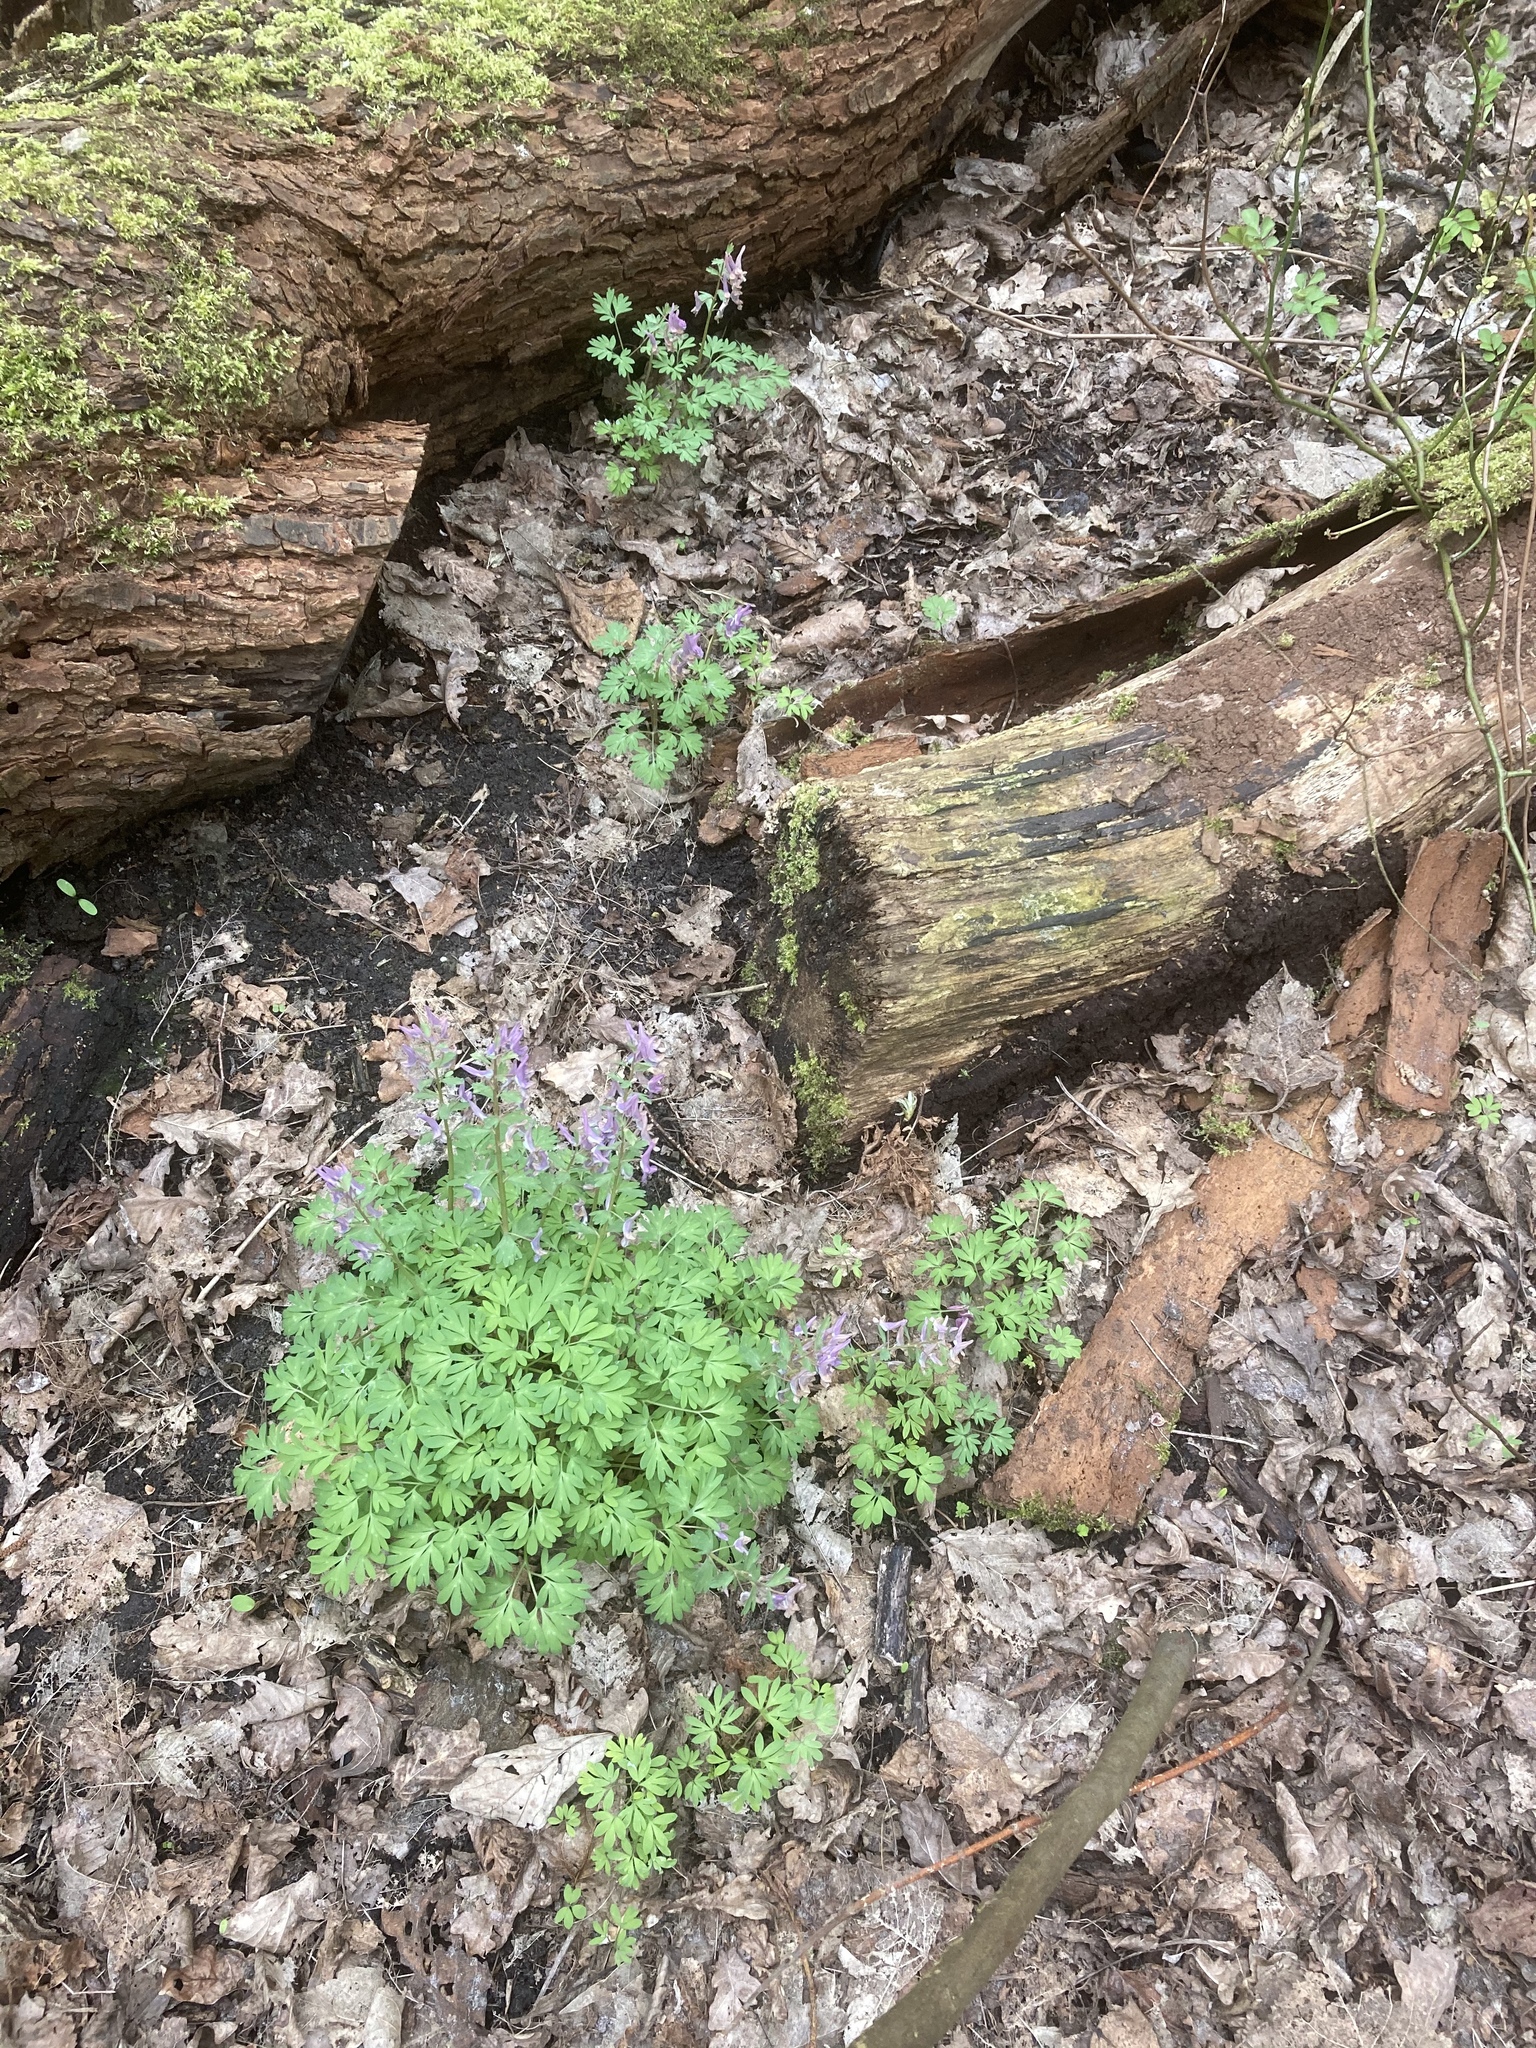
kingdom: Plantae
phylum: Tracheophyta
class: Magnoliopsida
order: Ranunculales
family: Papaveraceae
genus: Corydalis
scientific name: Corydalis solida
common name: Bird-in-a-bush
